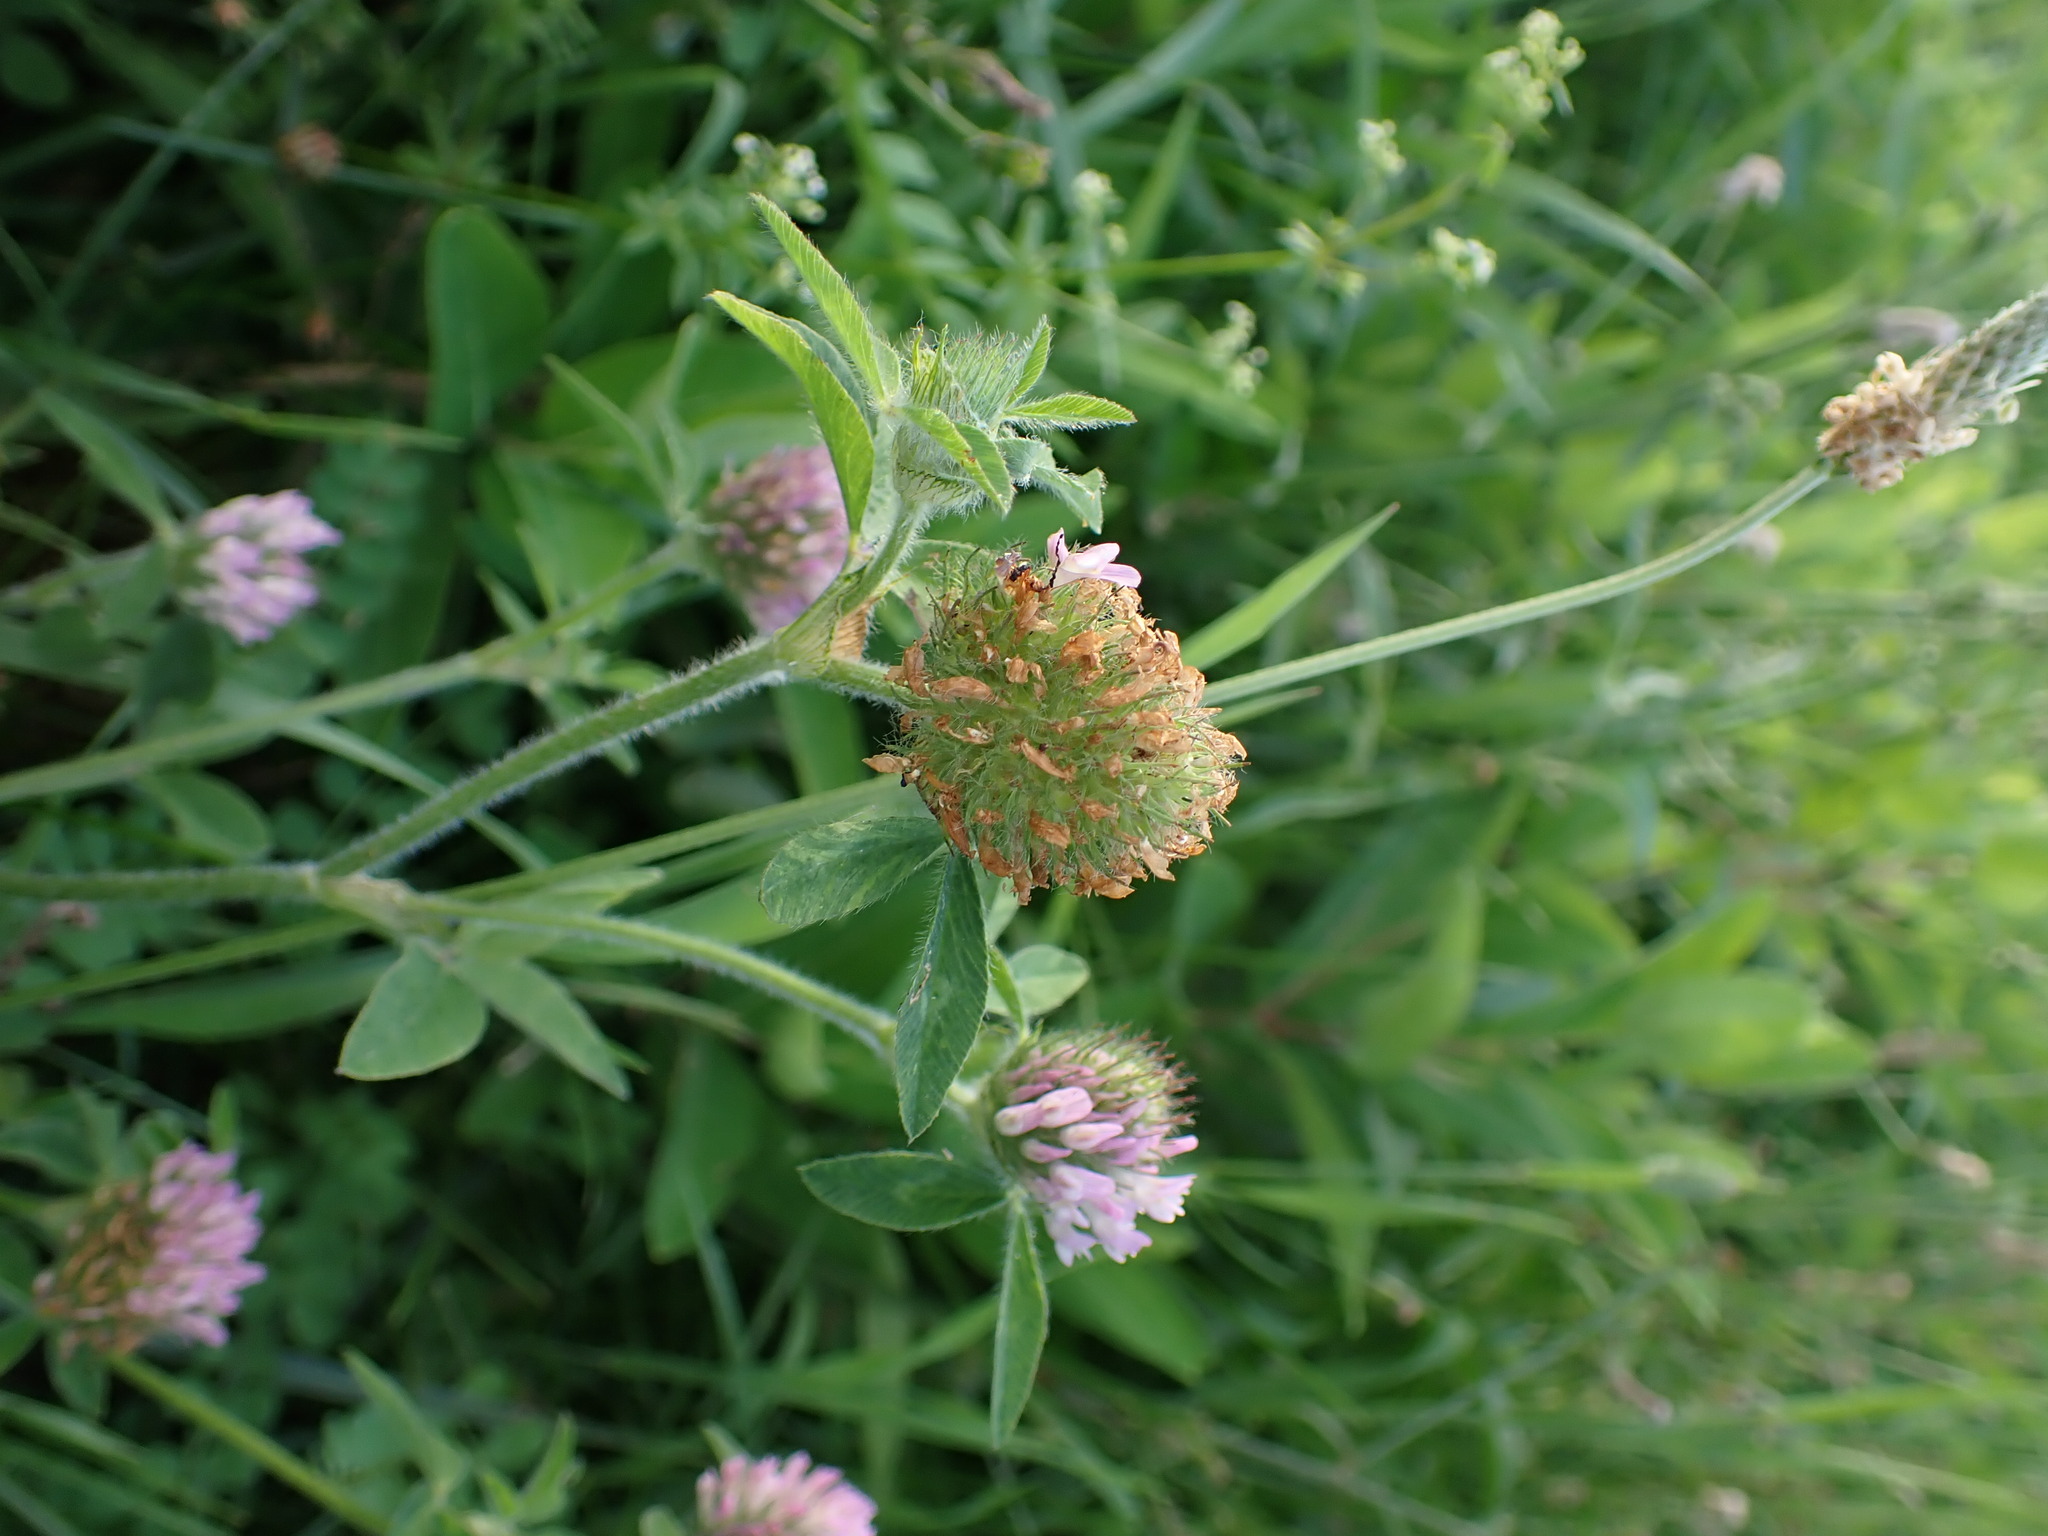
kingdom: Plantae
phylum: Tracheophyta
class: Magnoliopsida
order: Fabales
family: Fabaceae
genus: Trifolium
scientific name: Trifolium pratense
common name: Red clover
